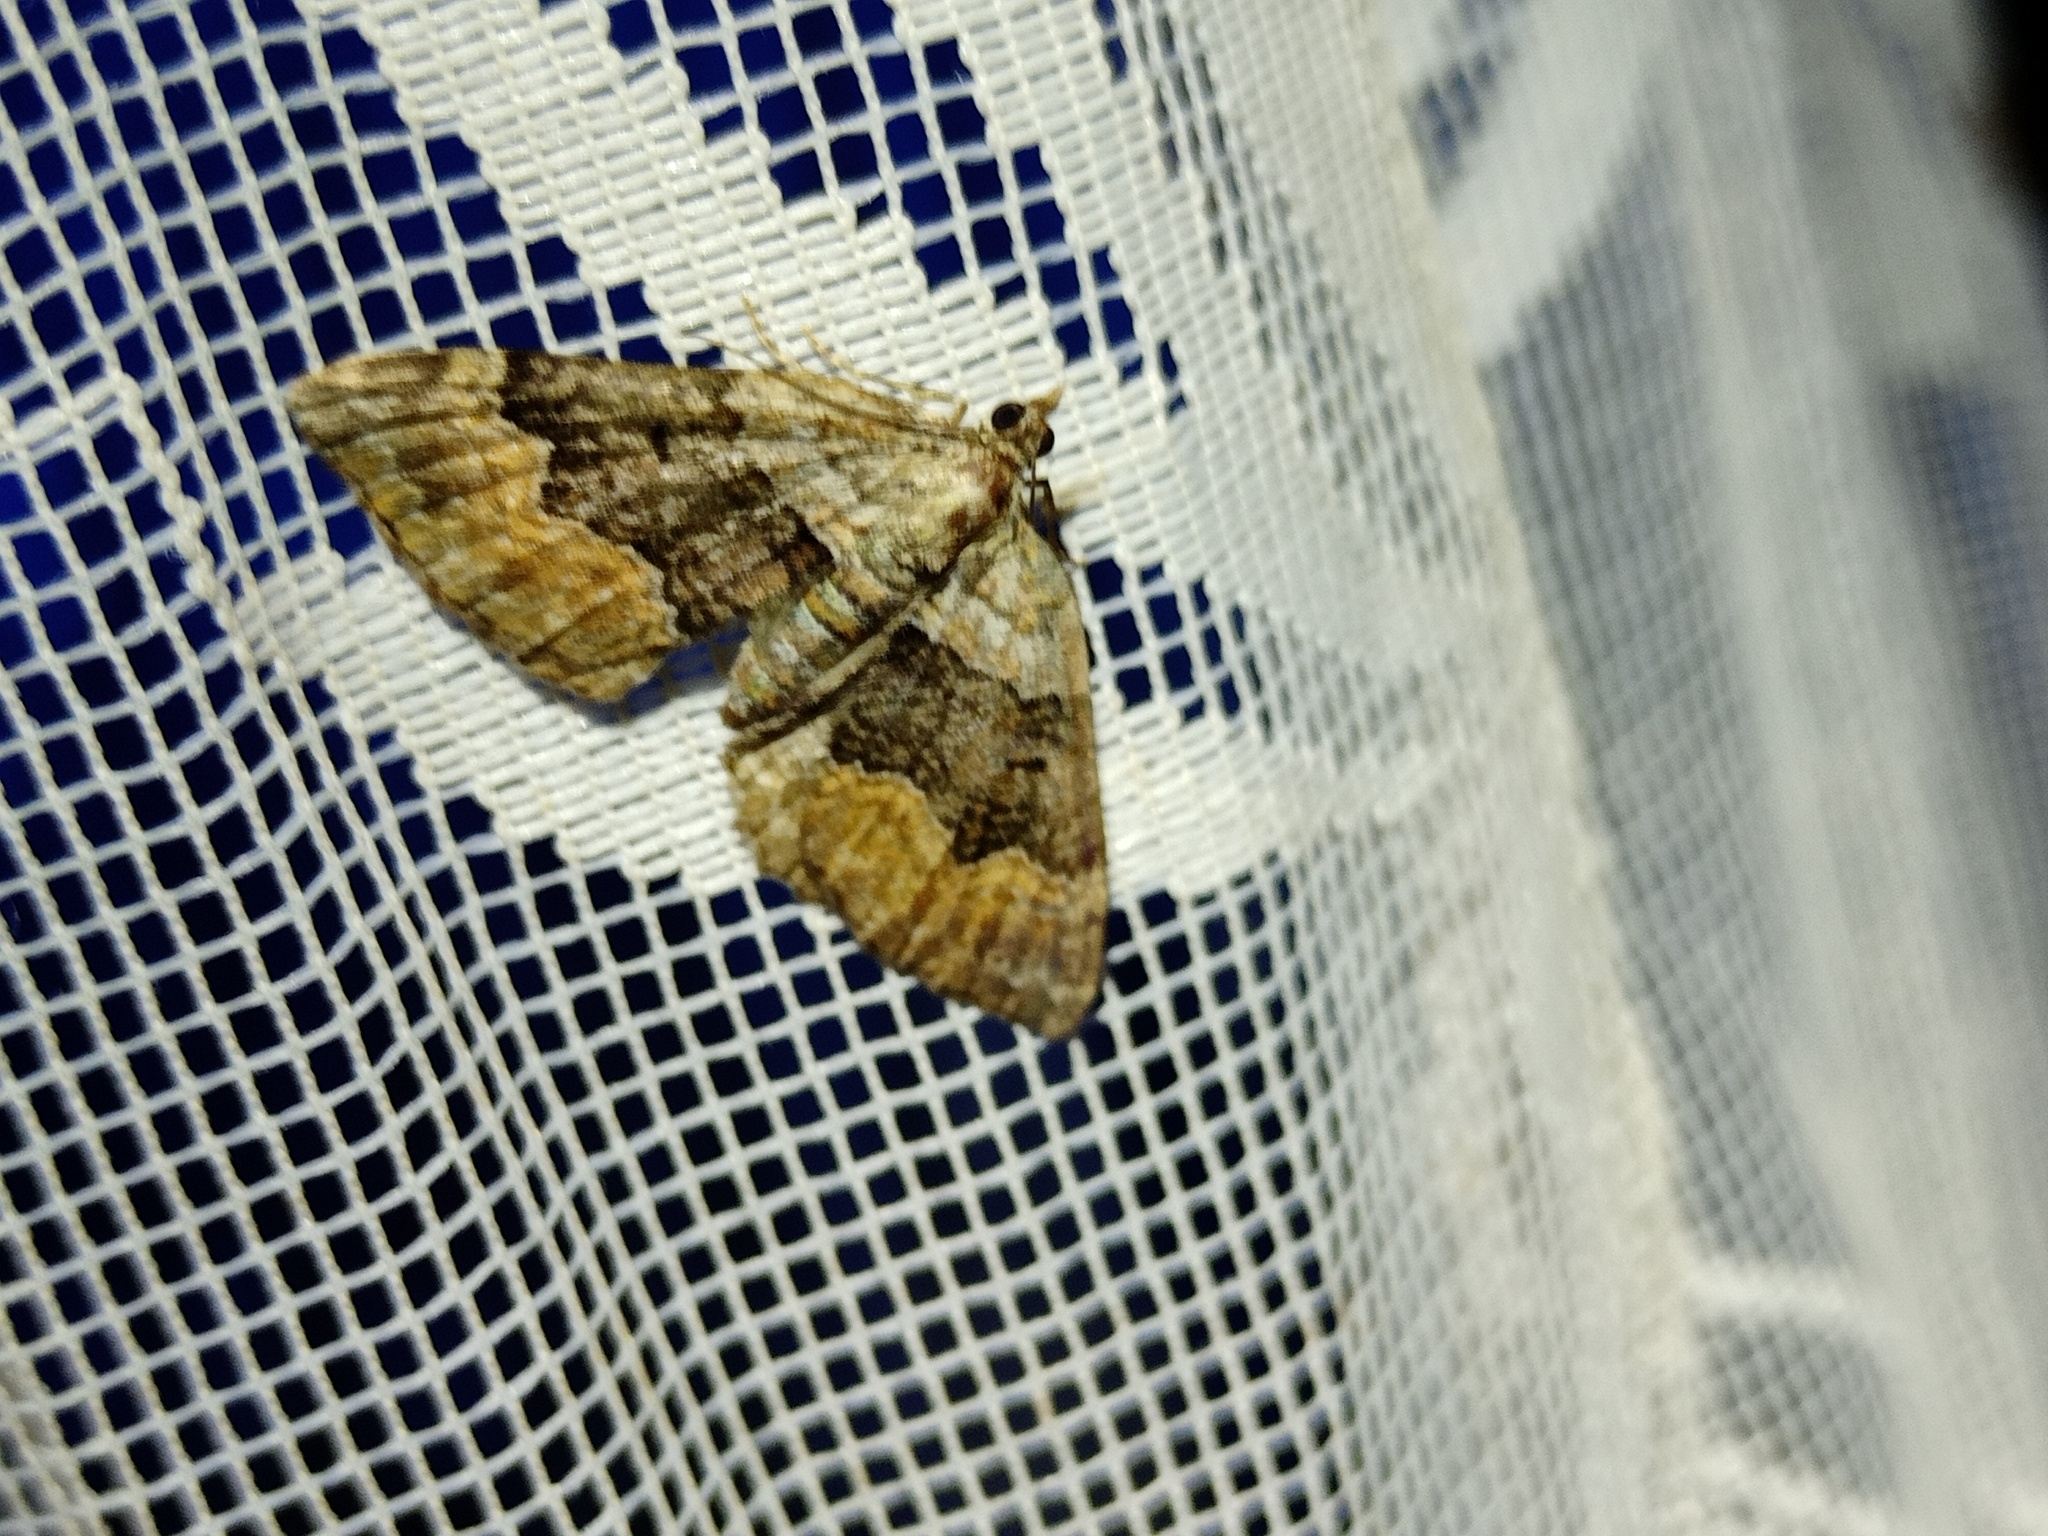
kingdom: Animalia
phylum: Arthropoda
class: Insecta
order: Lepidoptera
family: Geometridae
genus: Xanthorhoe
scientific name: Xanthorhoe quadrifasiata
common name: Large twin-spot carpet
